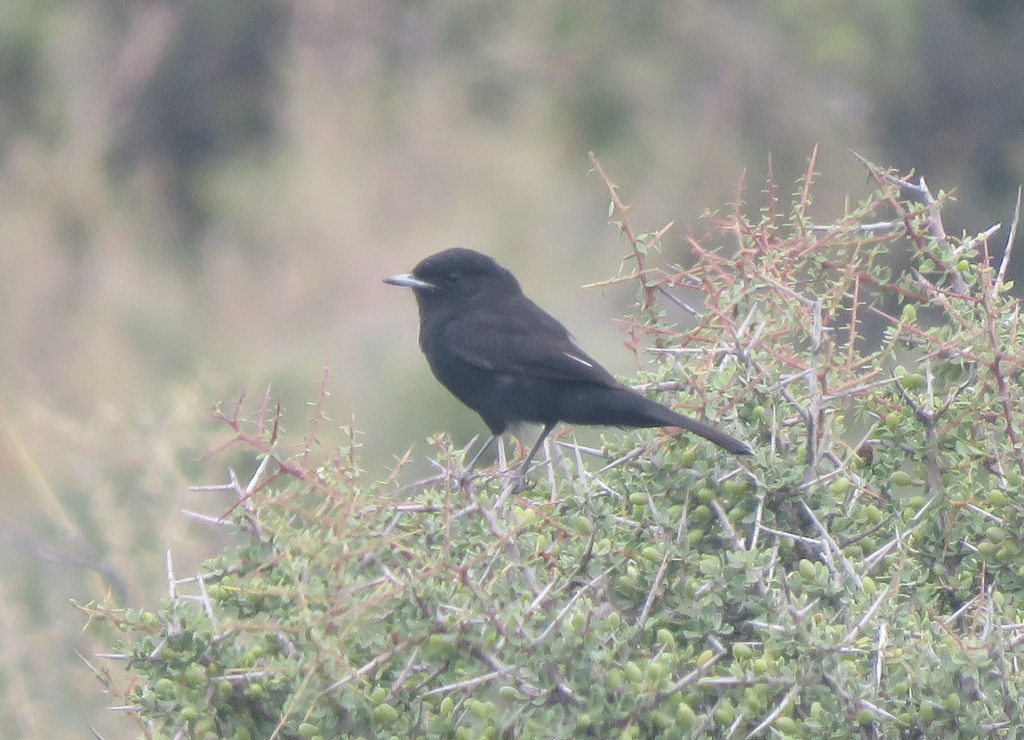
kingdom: Animalia
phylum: Chordata
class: Aves
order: Passeriformes
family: Tyrannidae
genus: Knipolegus
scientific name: Knipolegus hudsoni
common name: Hudson's black tyrant
